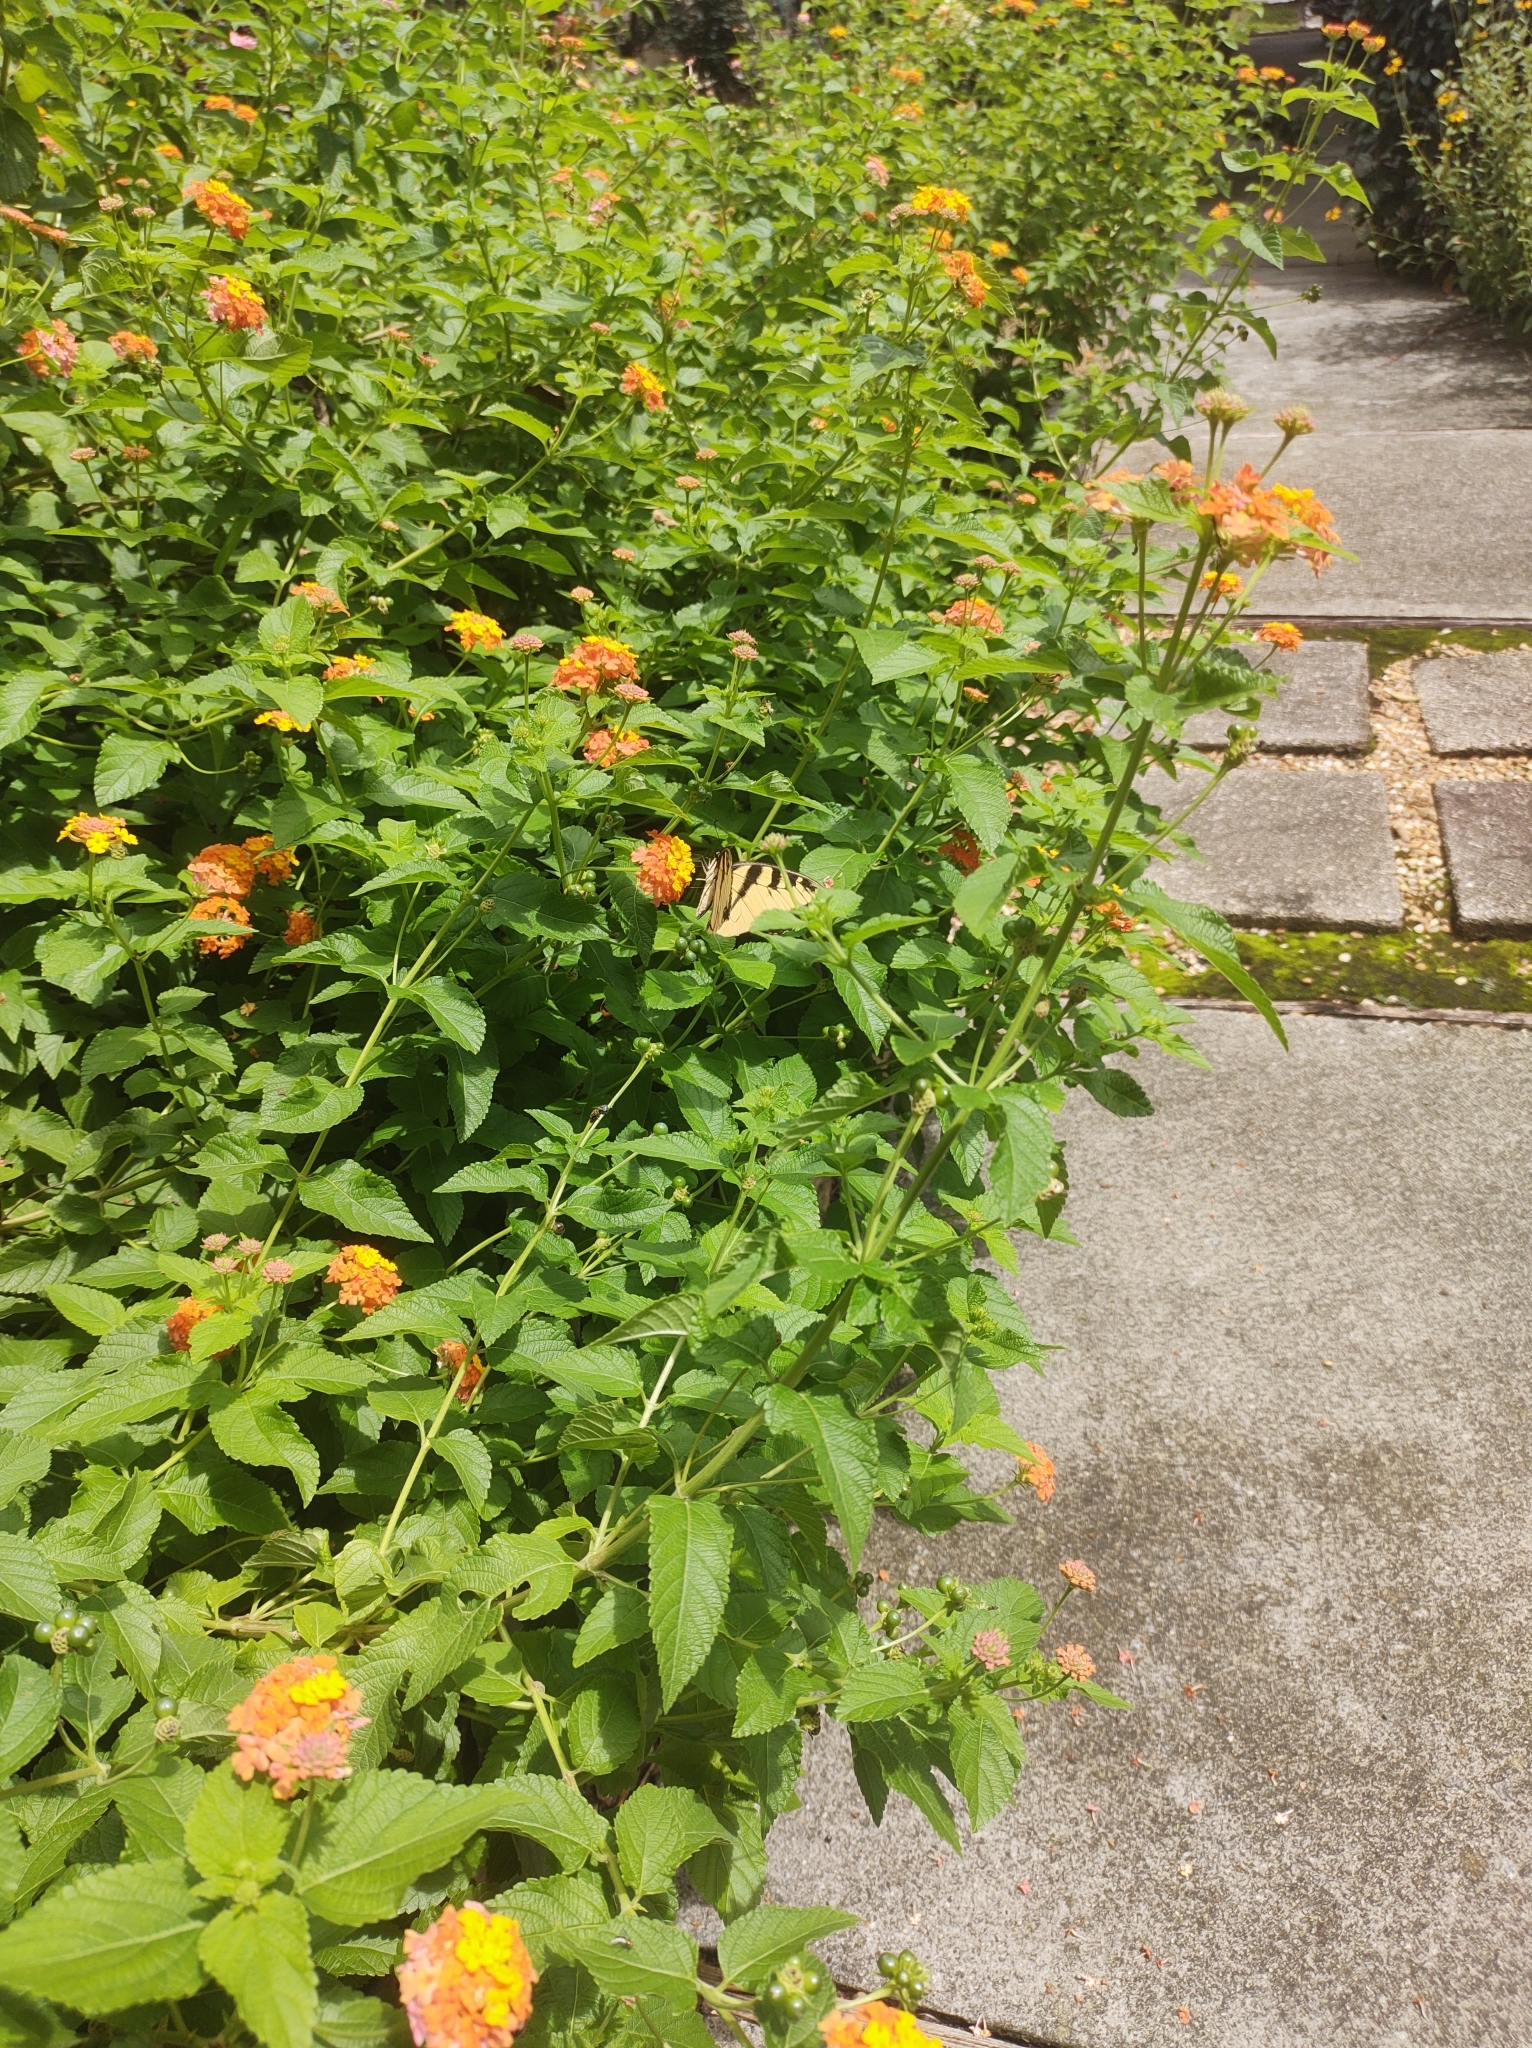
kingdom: Animalia
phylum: Arthropoda
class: Insecta
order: Lepidoptera
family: Papilionidae
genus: Papilio
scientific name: Papilio glaucus
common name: Tiger swallowtail
